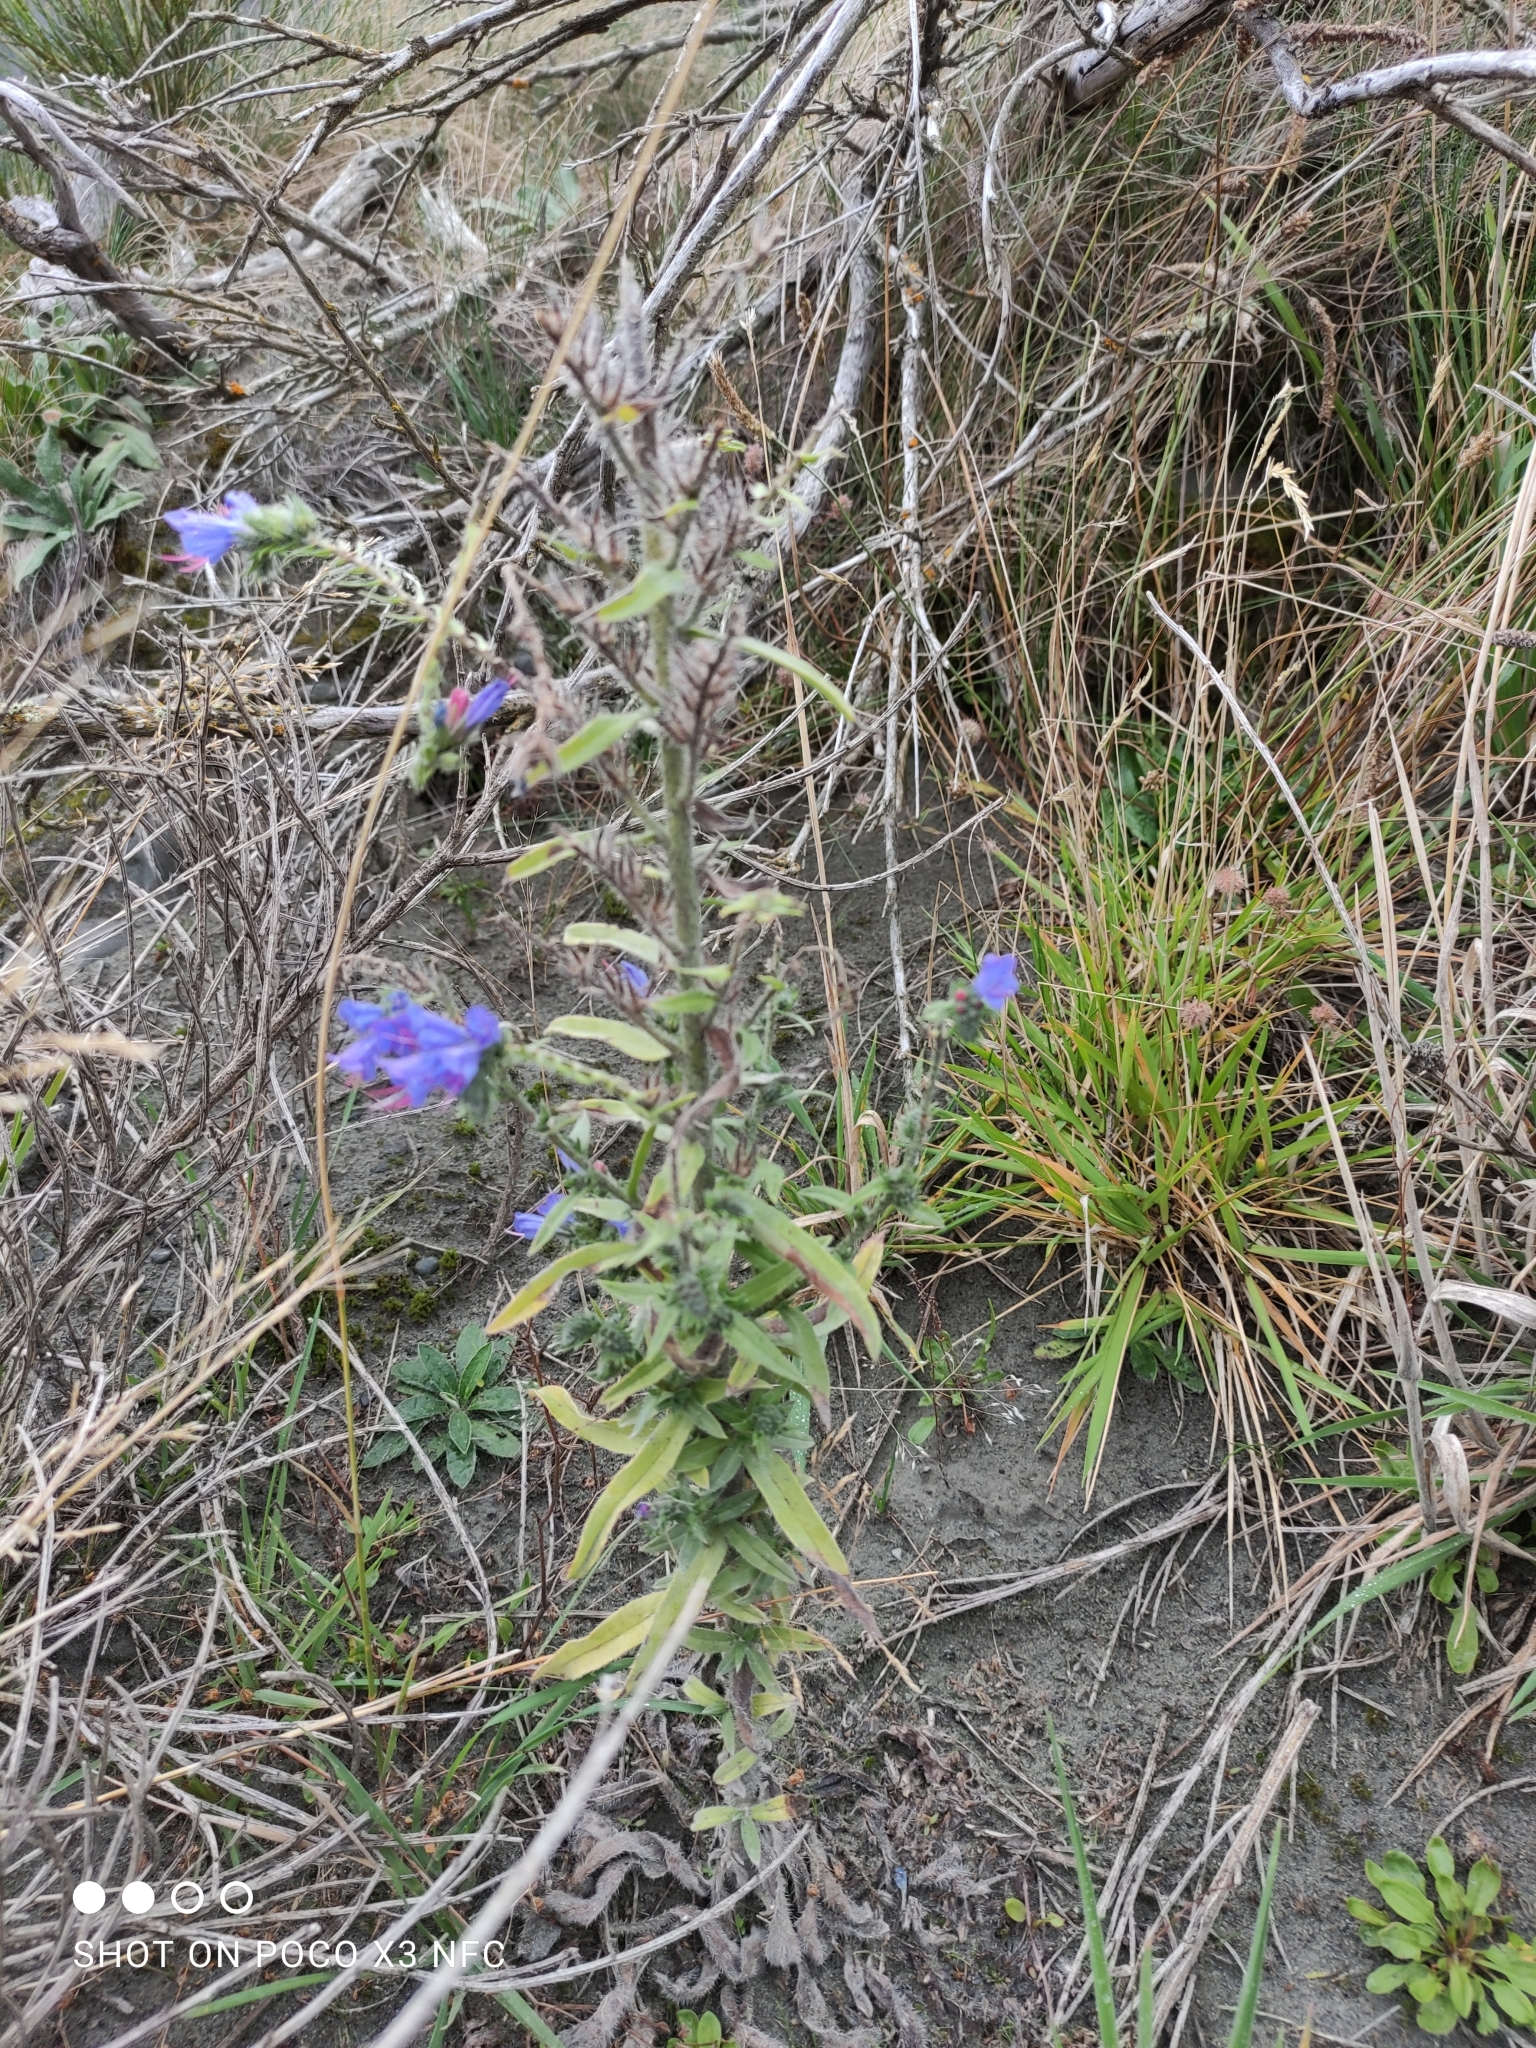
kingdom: Plantae
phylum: Tracheophyta
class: Magnoliopsida
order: Boraginales
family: Boraginaceae
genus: Echium
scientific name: Echium vulgare
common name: Common viper's bugloss
